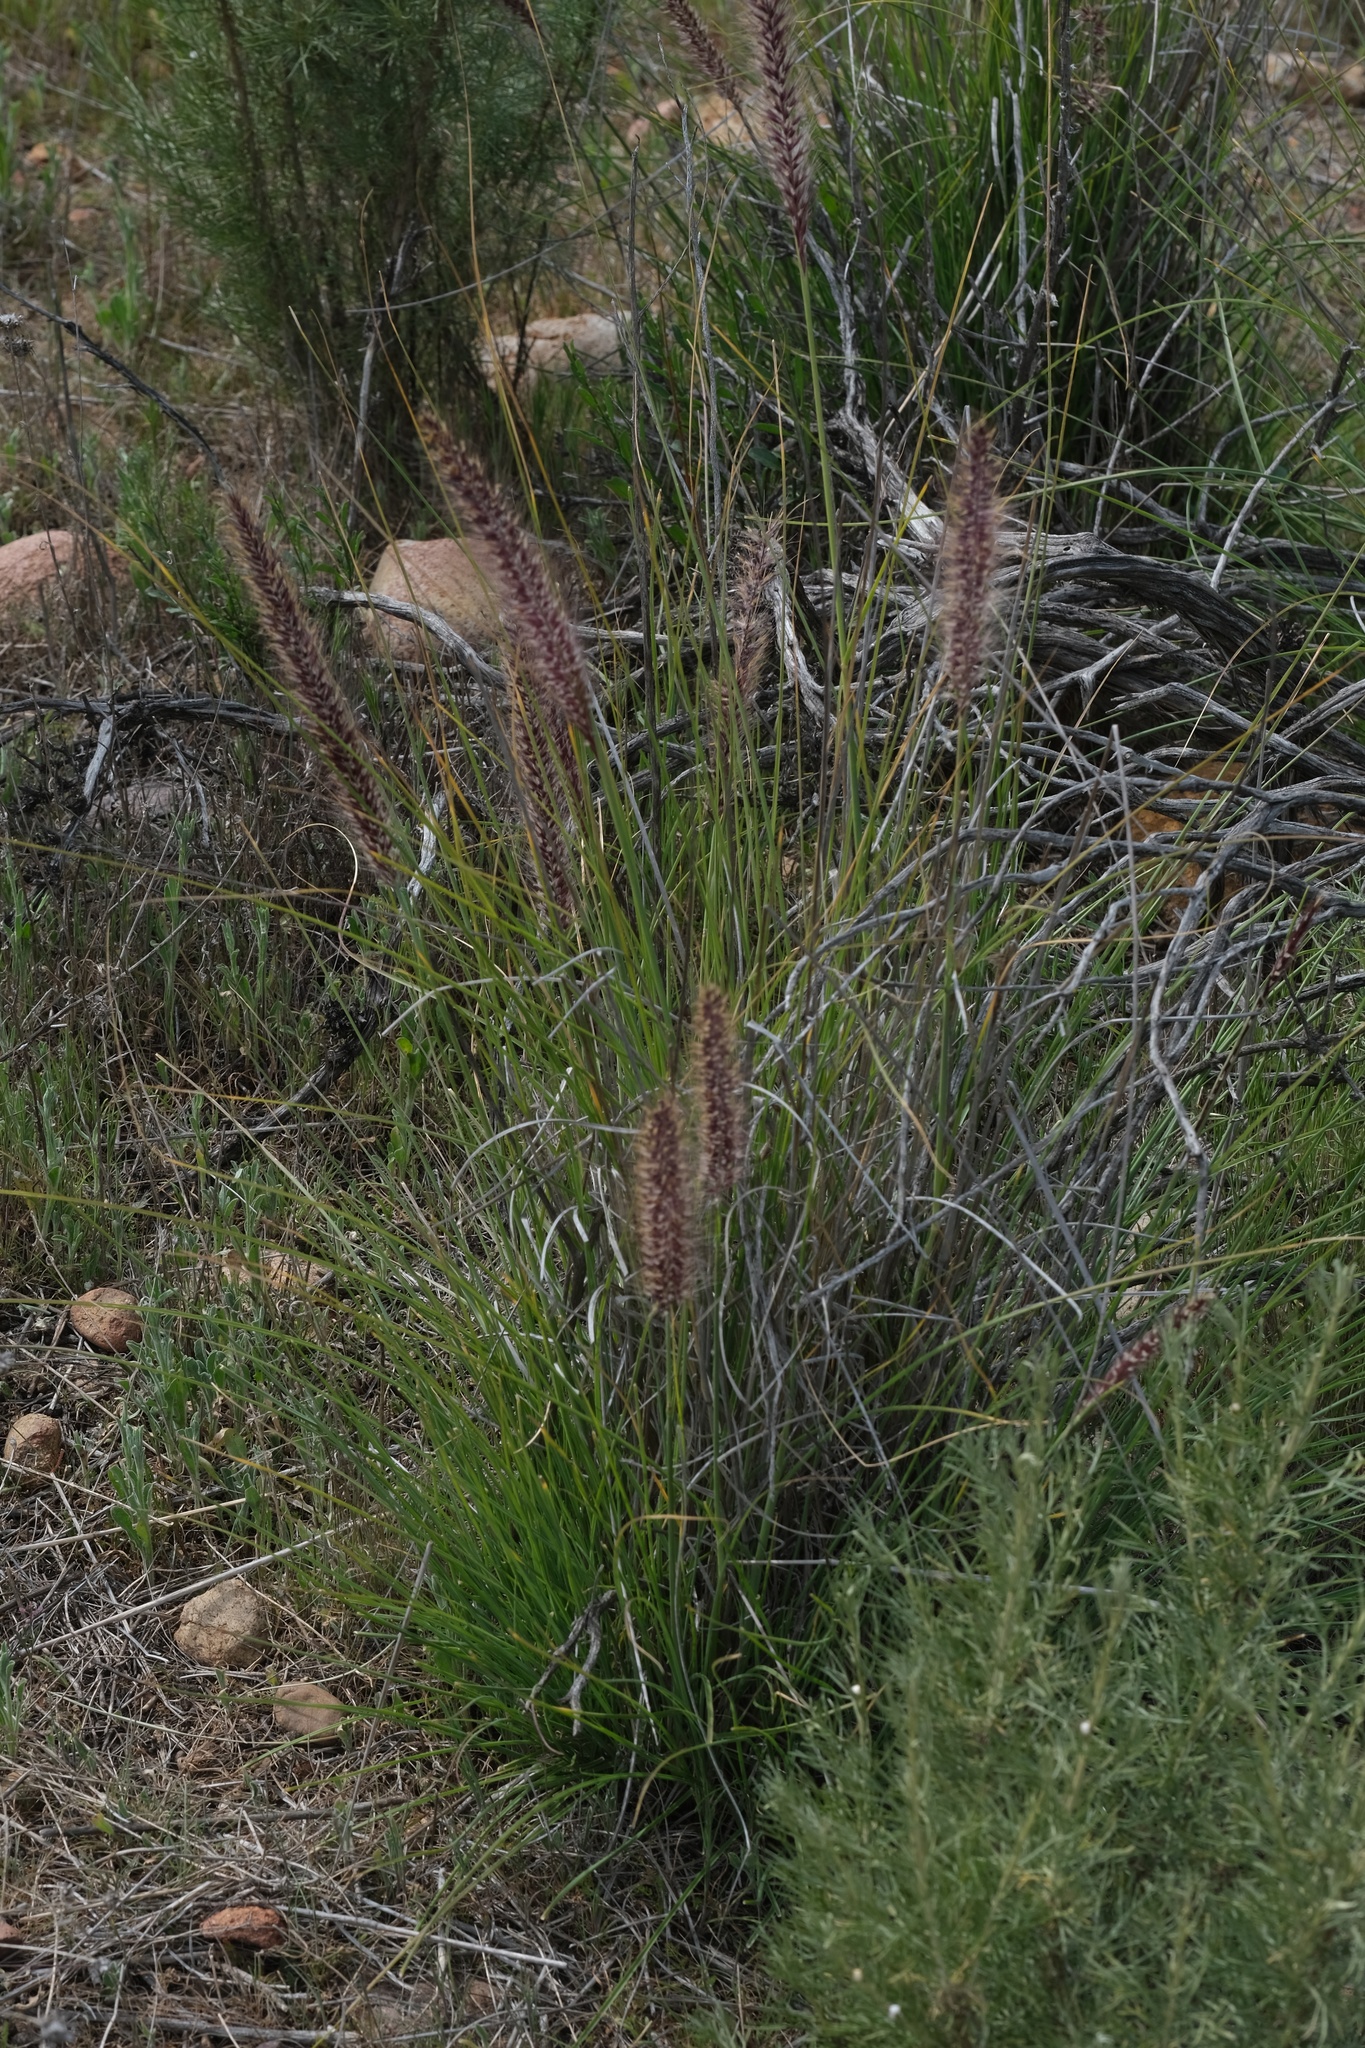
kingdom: Plantae
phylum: Tracheophyta
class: Liliopsida
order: Poales
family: Poaceae
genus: Cenchrus
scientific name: Cenchrus setaceus
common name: Crimson fountaingrass
